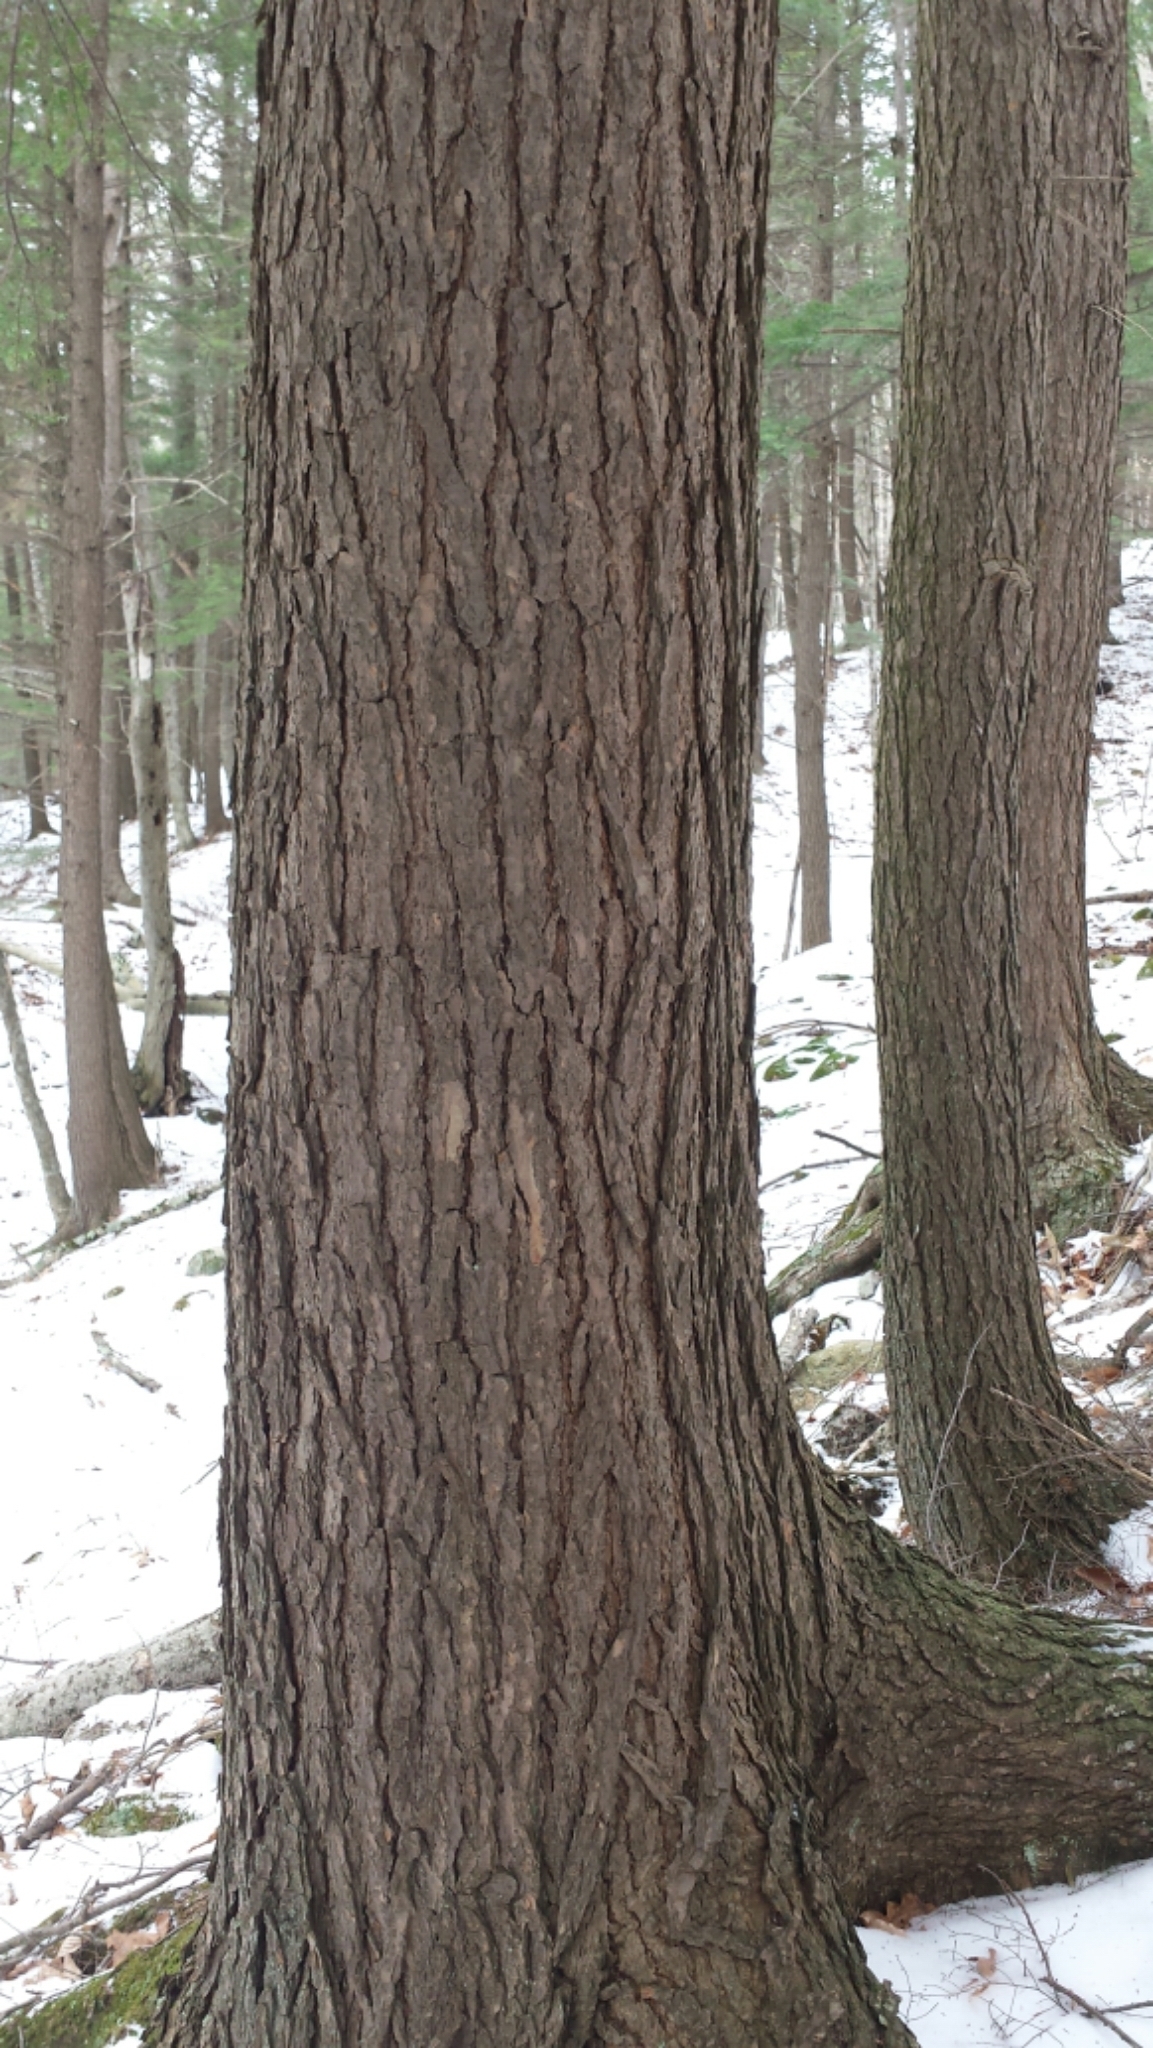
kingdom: Plantae
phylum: Tracheophyta
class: Pinopsida
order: Pinales
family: Pinaceae
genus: Tsuga
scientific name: Tsuga canadensis
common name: Eastern hemlock
